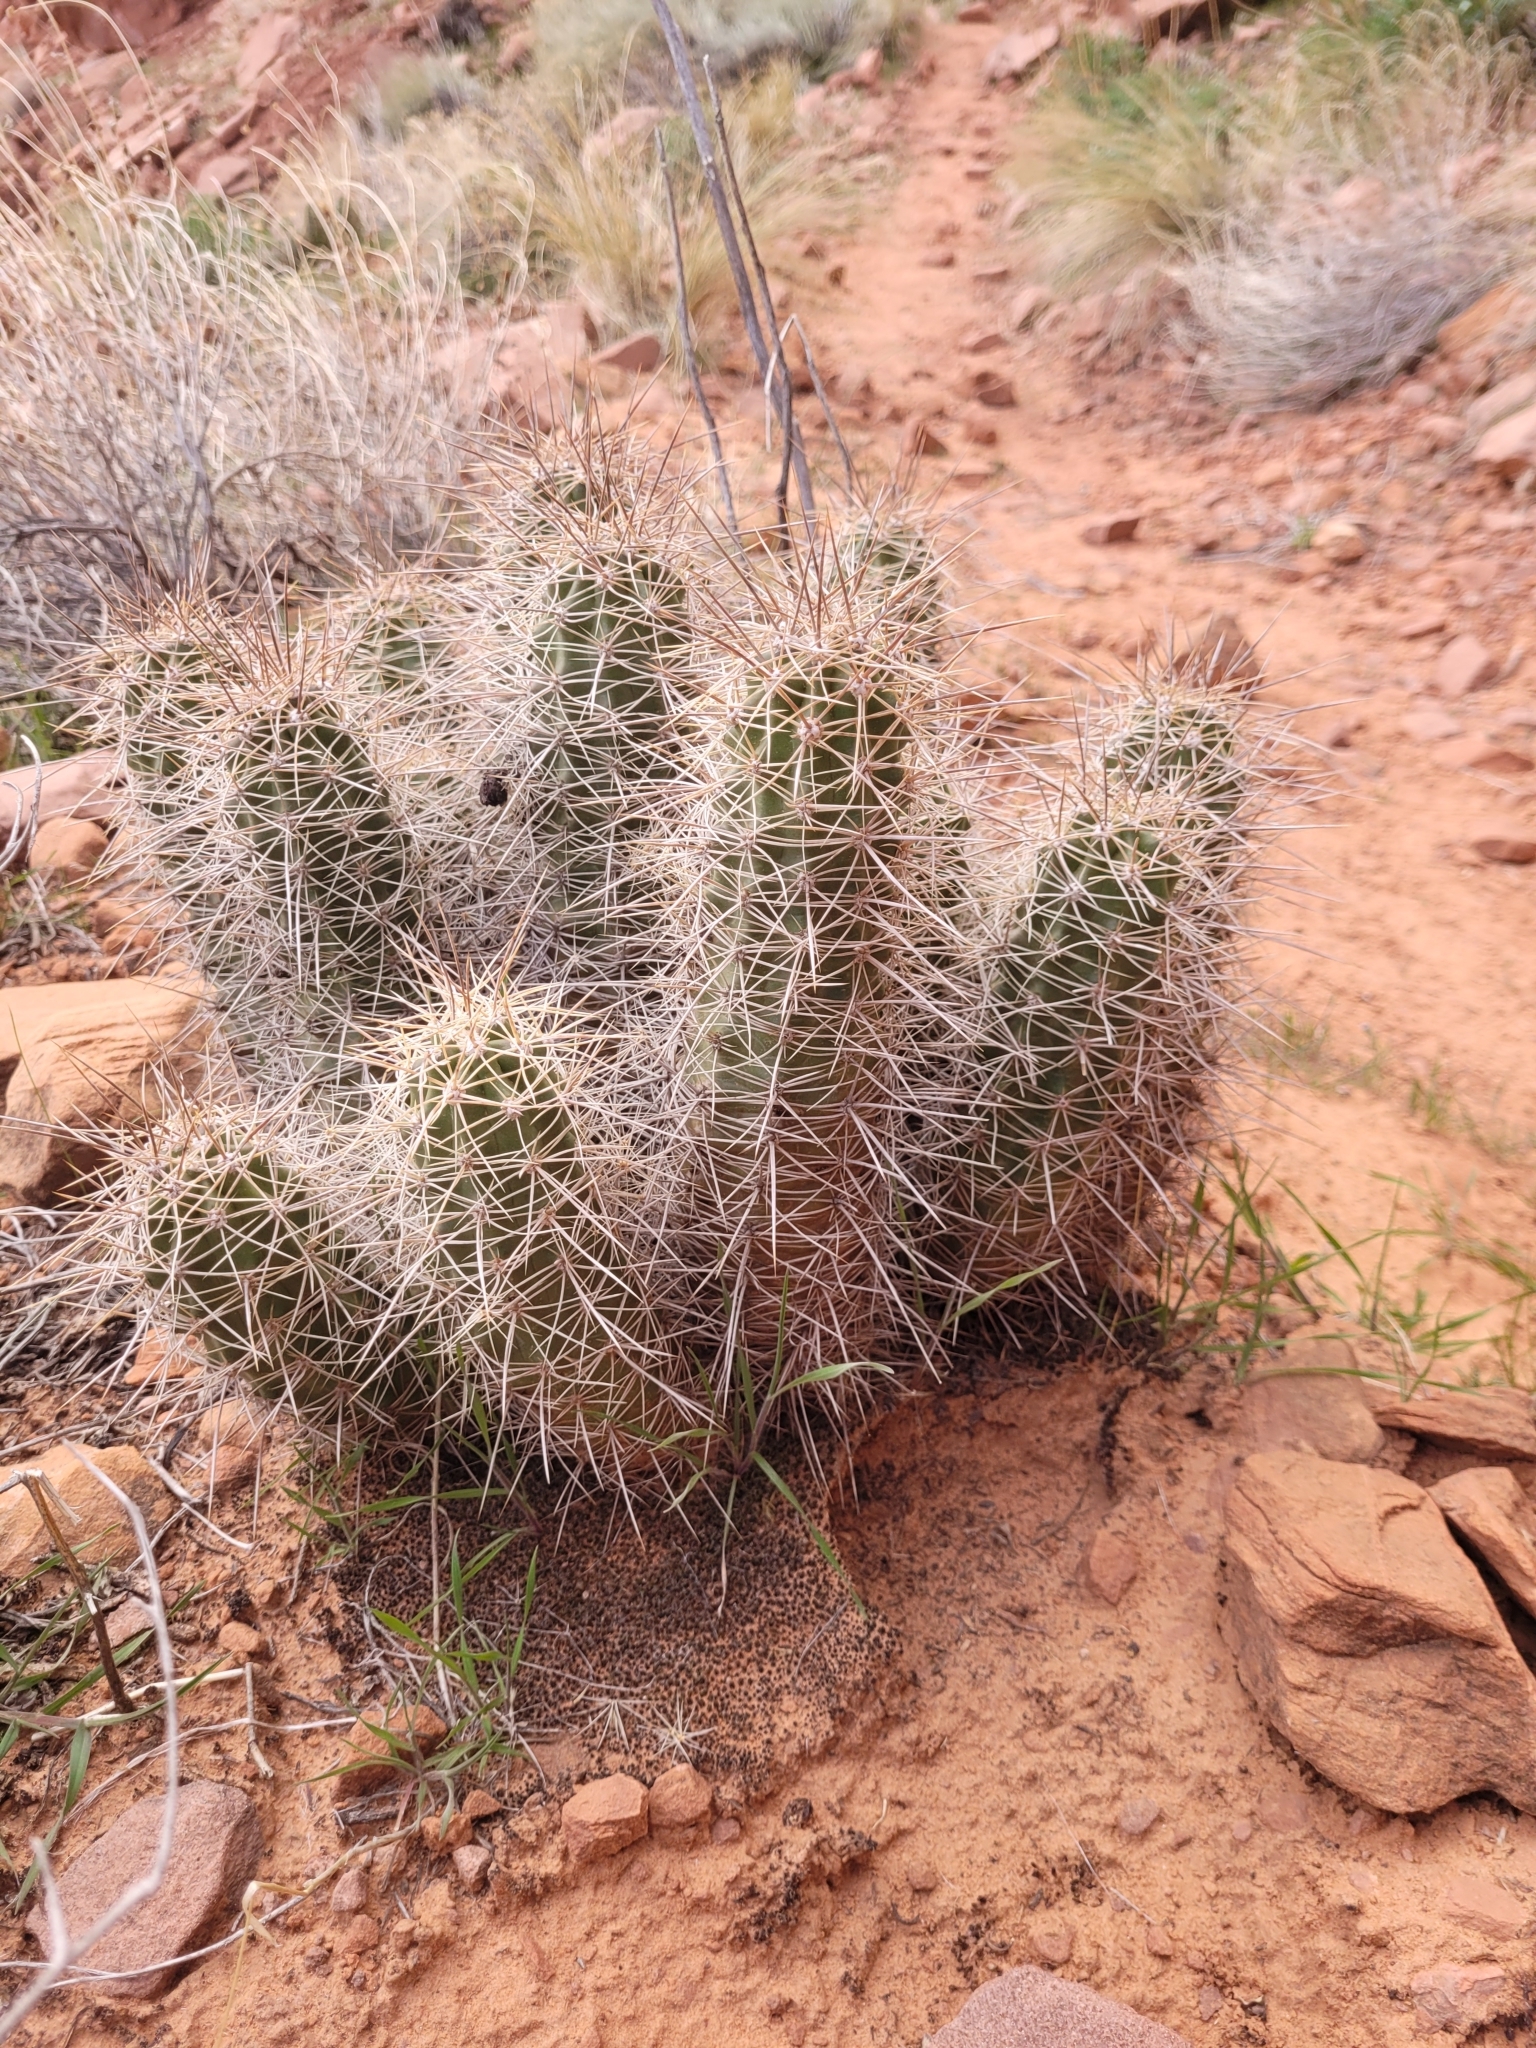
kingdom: Plantae
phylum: Tracheophyta
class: Magnoliopsida
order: Caryophyllales
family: Cactaceae
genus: Echinocereus
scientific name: Echinocereus triglochidiatus
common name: Claretcup hedgehog
